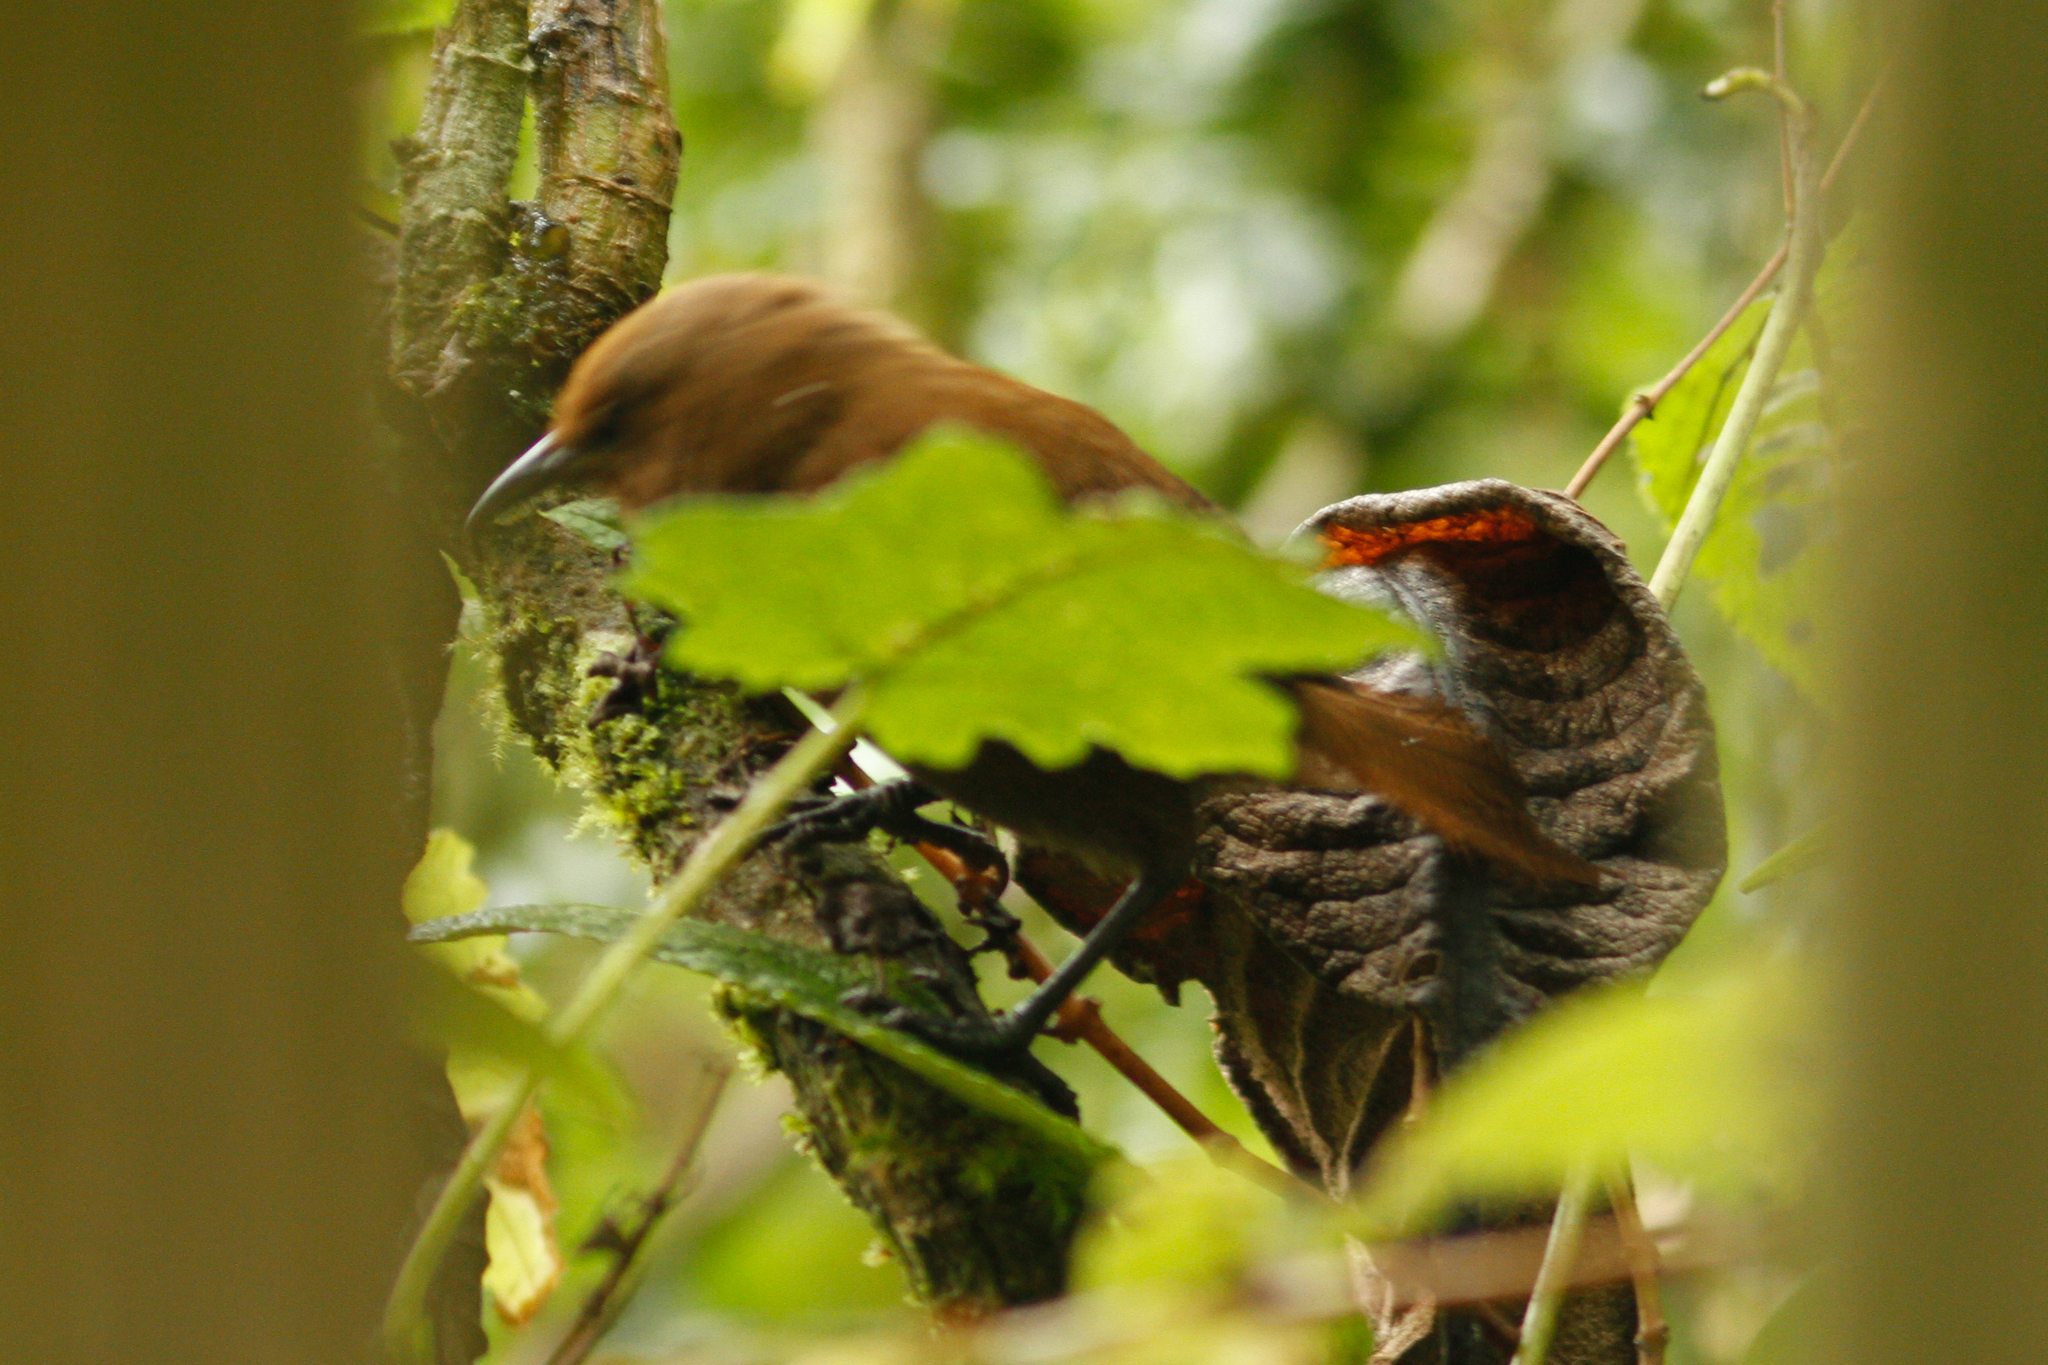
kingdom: Animalia
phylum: Chordata
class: Aves
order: Passeriformes
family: Troglodytidae
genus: Cinnycerthia
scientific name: Cinnycerthia unirufa
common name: Rufous wren
